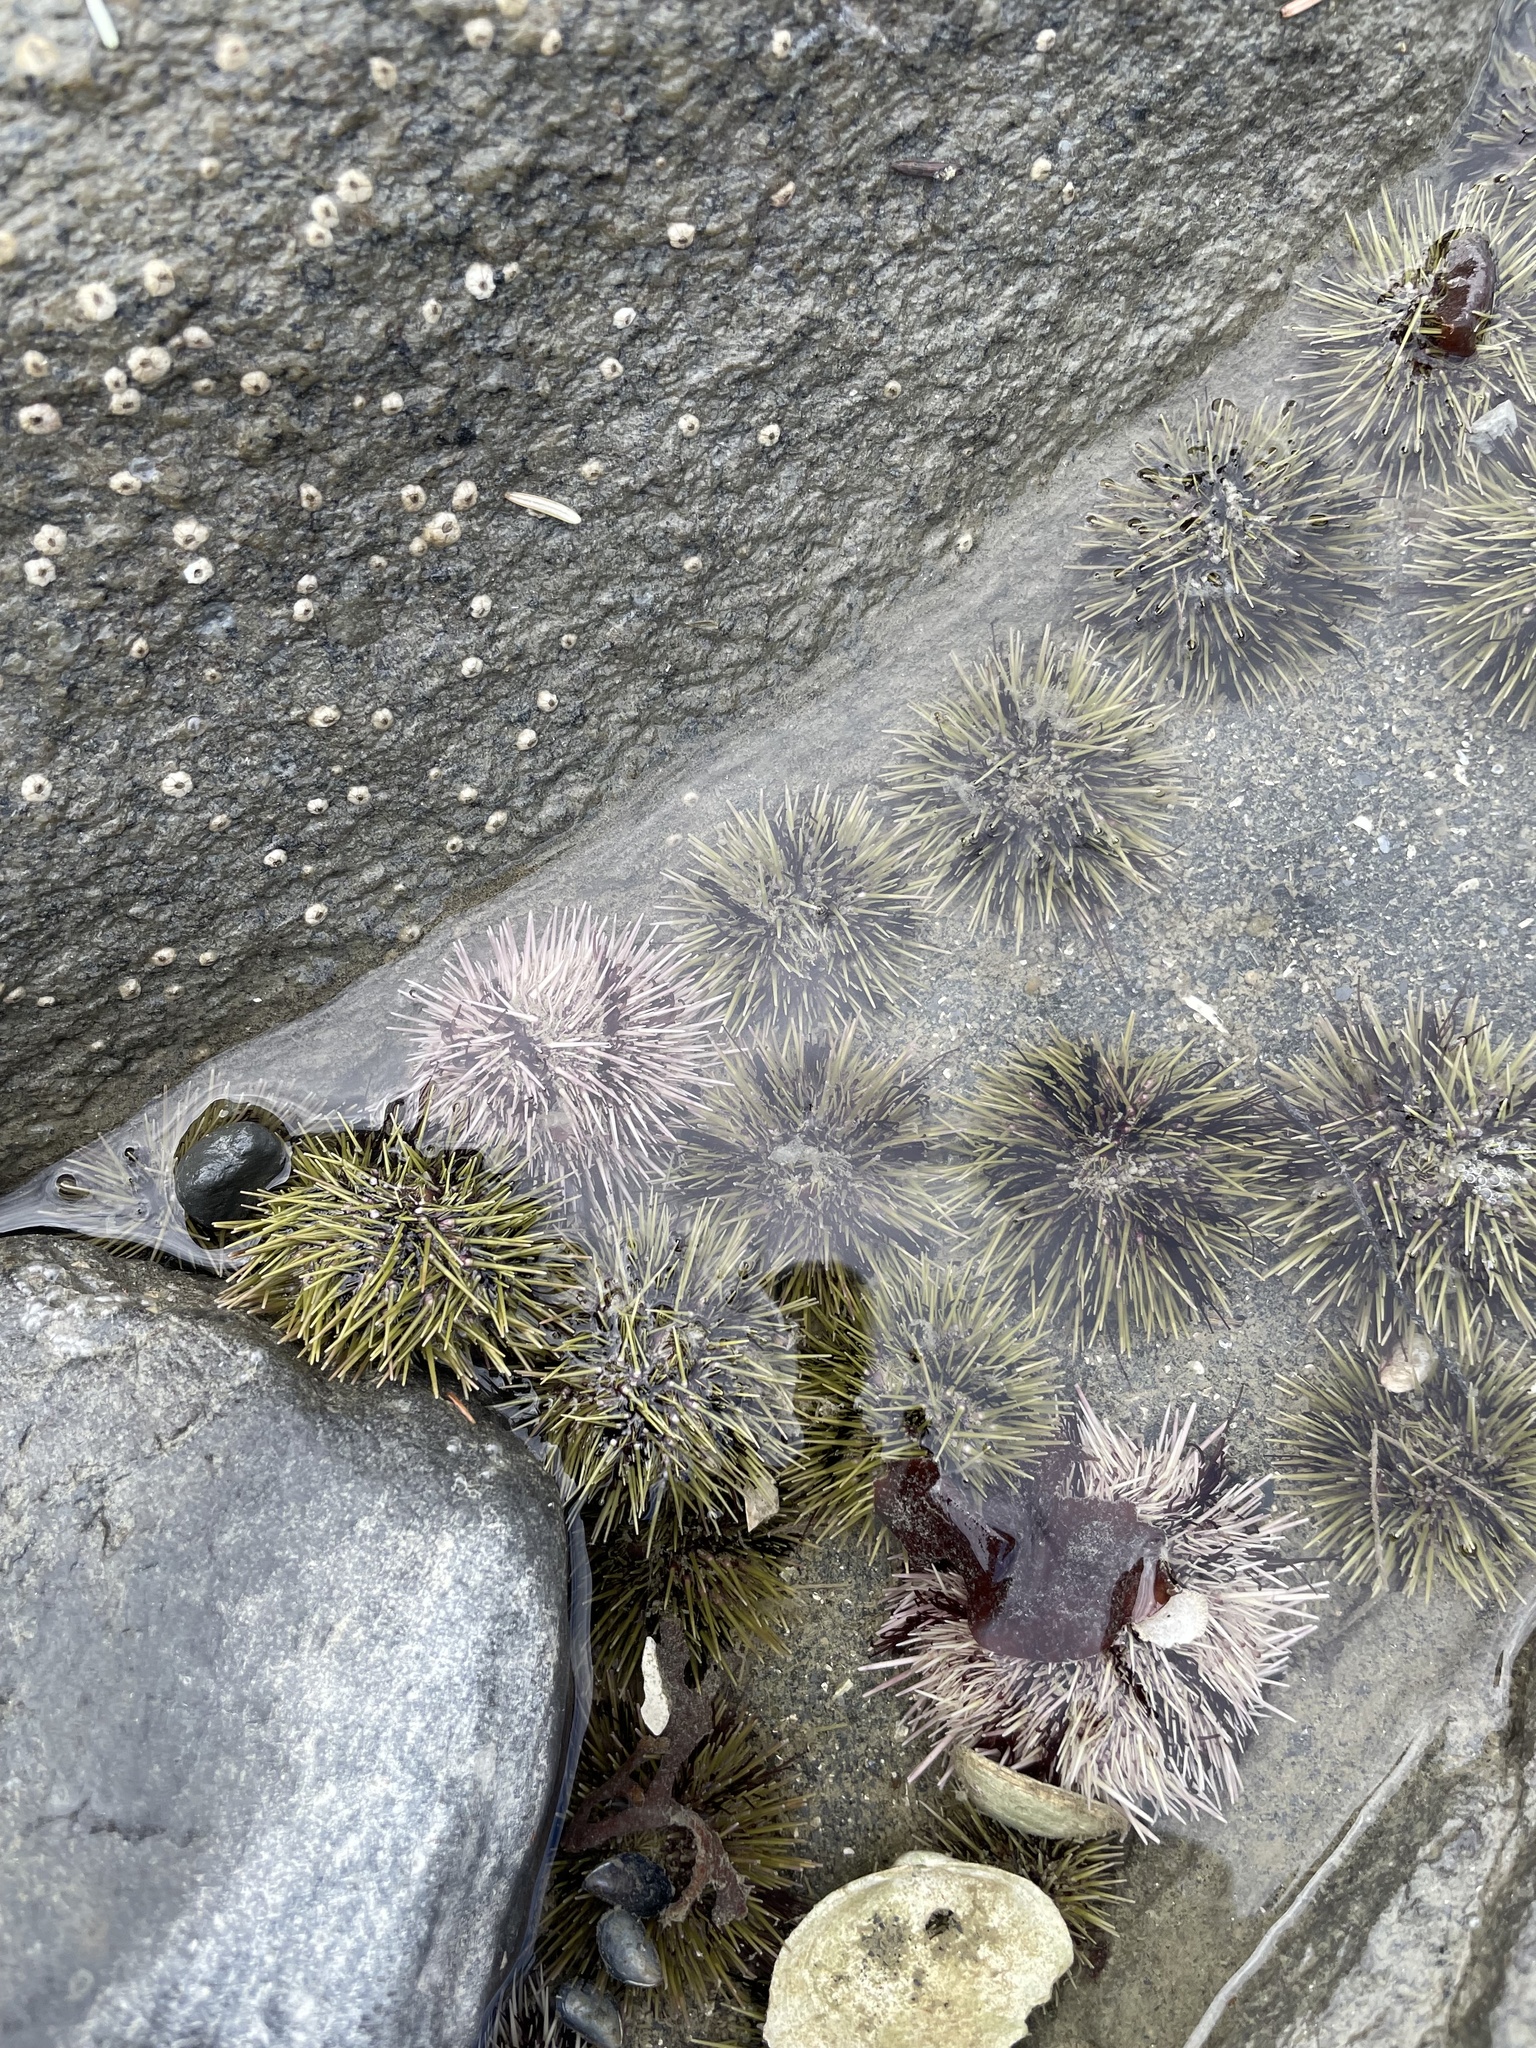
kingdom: Animalia
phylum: Echinodermata
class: Echinoidea
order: Camarodonta
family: Strongylocentrotidae
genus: Strongylocentrotus
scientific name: Strongylocentrotus droebachiensis
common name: Northern sea urchin
